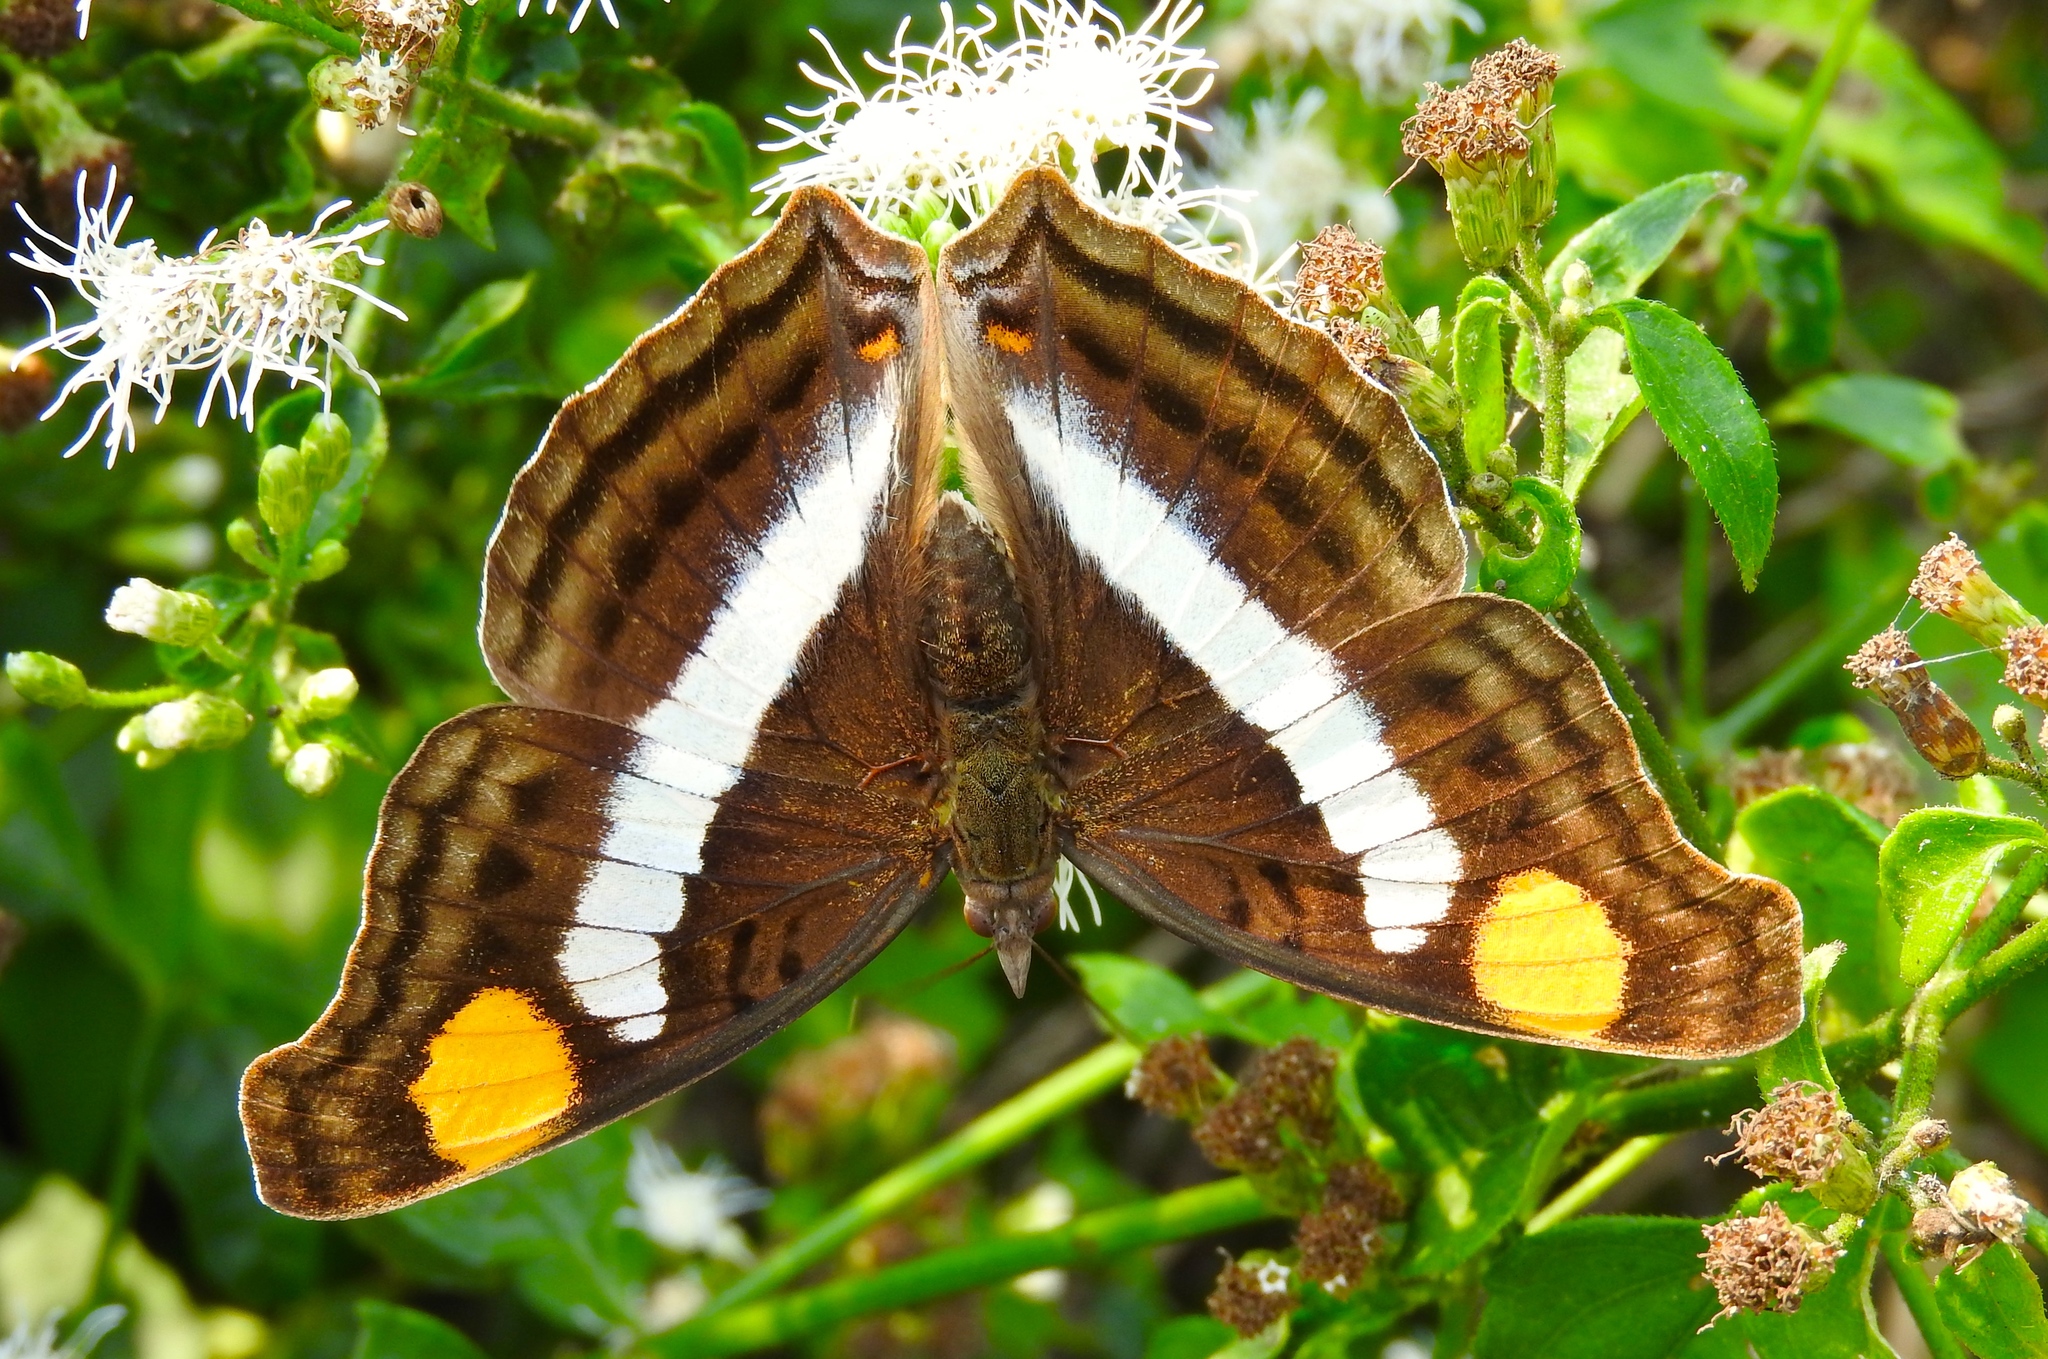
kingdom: Animalia
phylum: Arthropoda
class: Insecta
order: Lepidoptera
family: Nymphalidae
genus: Doxocopa
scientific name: Doxocopa laure
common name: Silver emperor
